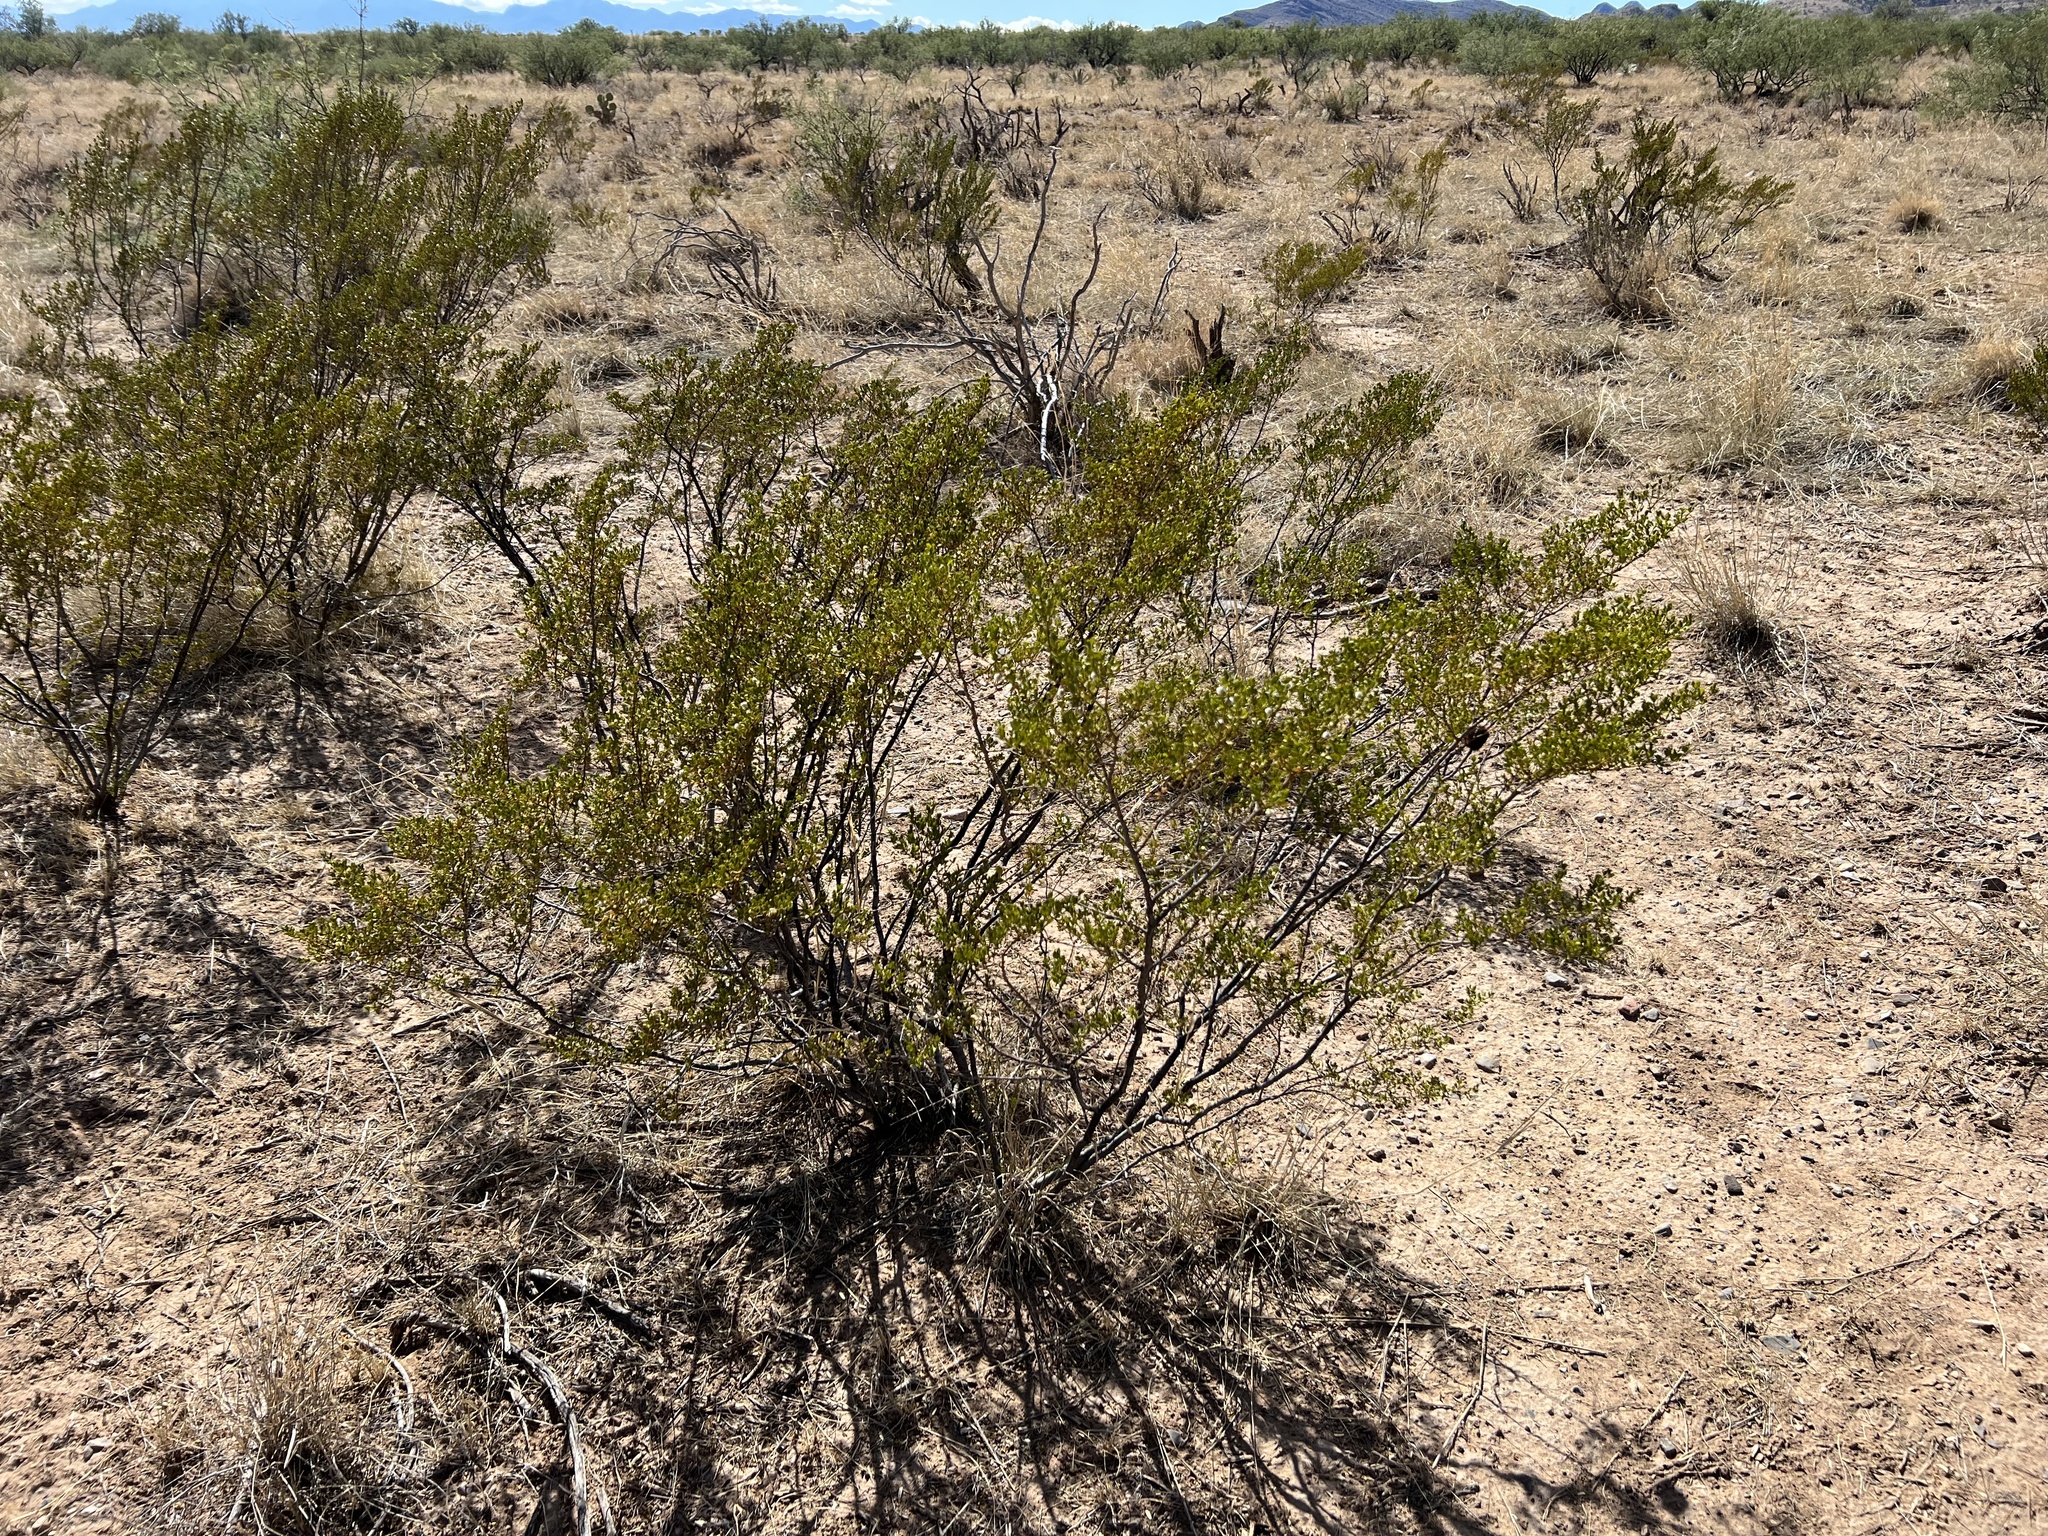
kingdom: Plantae
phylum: Tracheophyta
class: Magnoliopsida
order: Zygophyllales
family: Zygophyllaceae
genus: Larrea
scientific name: Larrea tridentata
